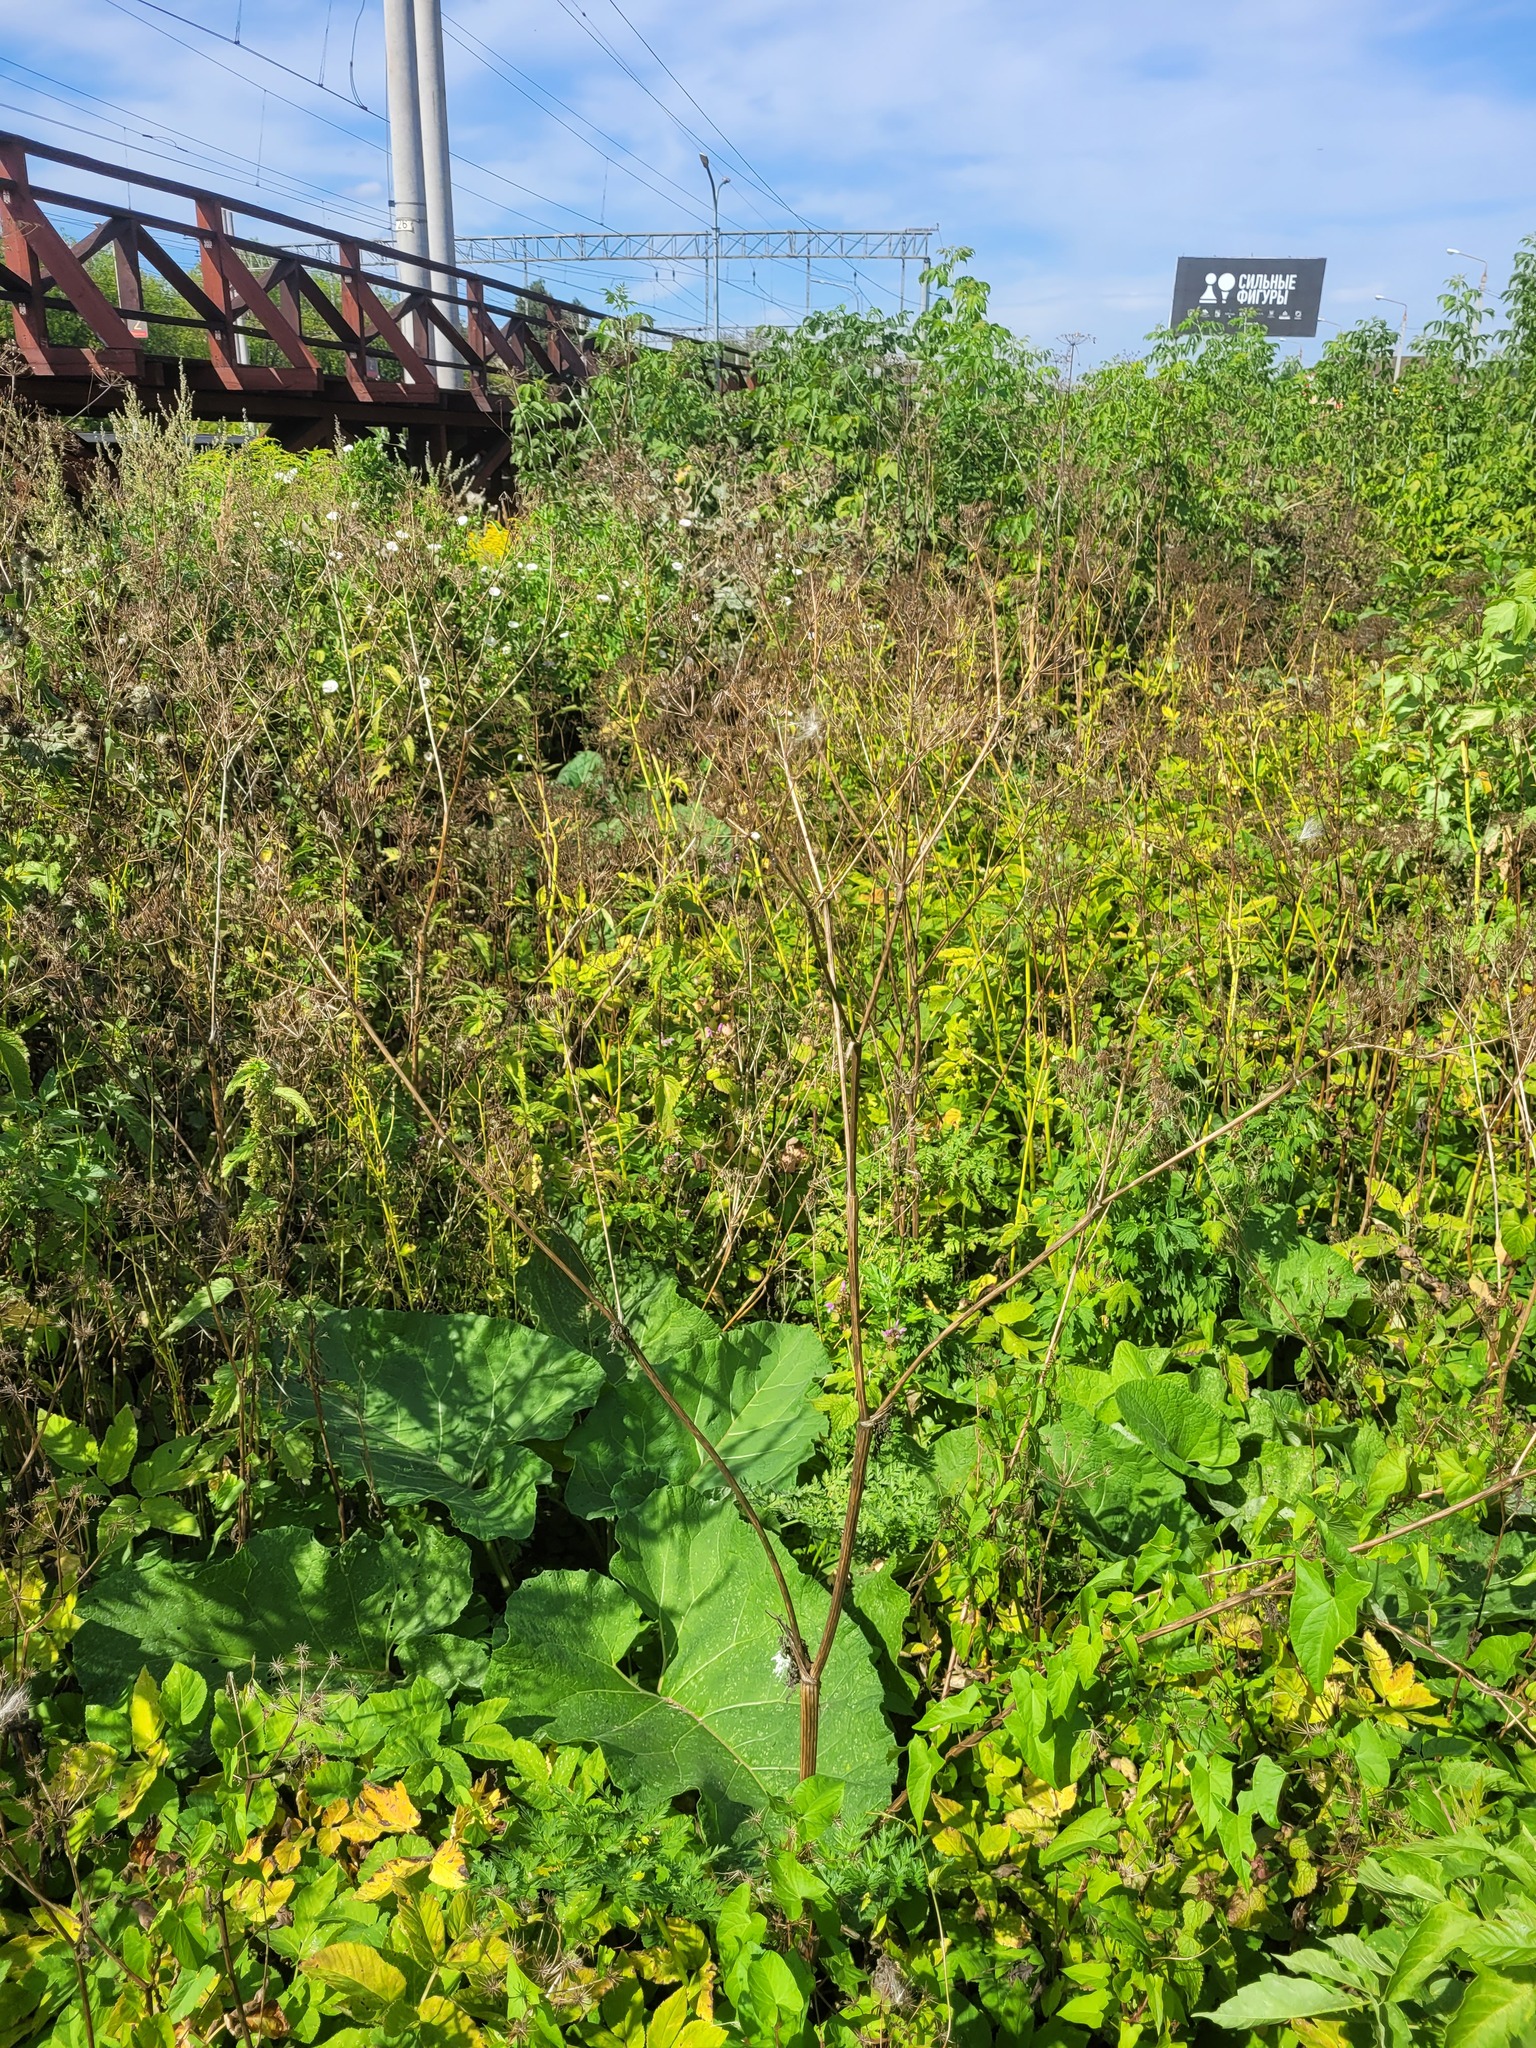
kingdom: Plantae
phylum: Tracheophyta
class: Magnoliopsida
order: Apiales
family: Apiaceae
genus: Anthriscus
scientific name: Anthriscus sylvestris
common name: Cow parsley
